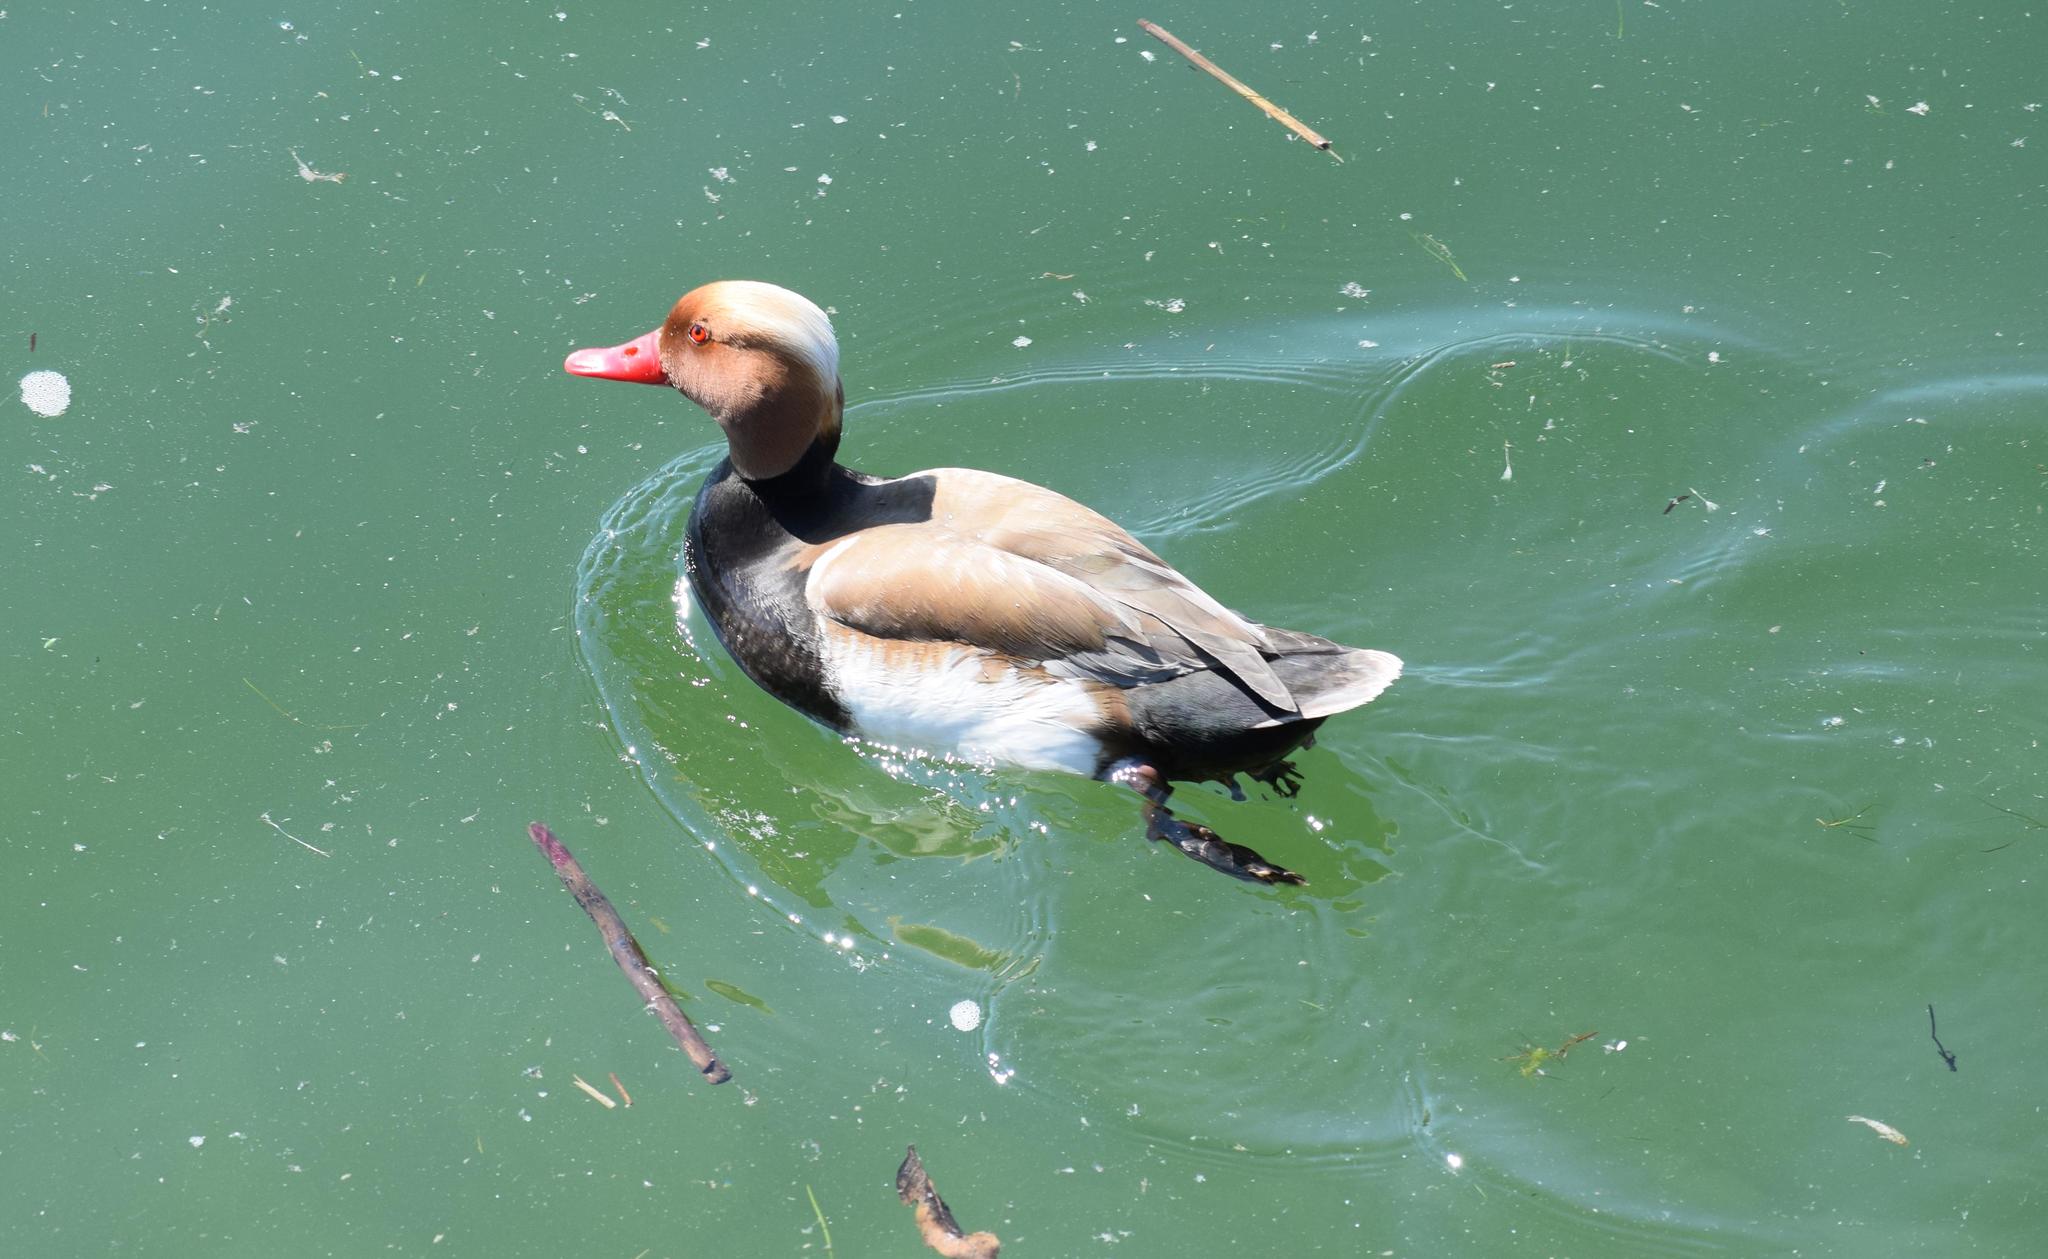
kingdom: Animalia
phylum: Chordata
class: Aves
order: Anseriformes
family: Anatidae
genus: Netta
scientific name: Netta rufina
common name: Red-crested pochard
